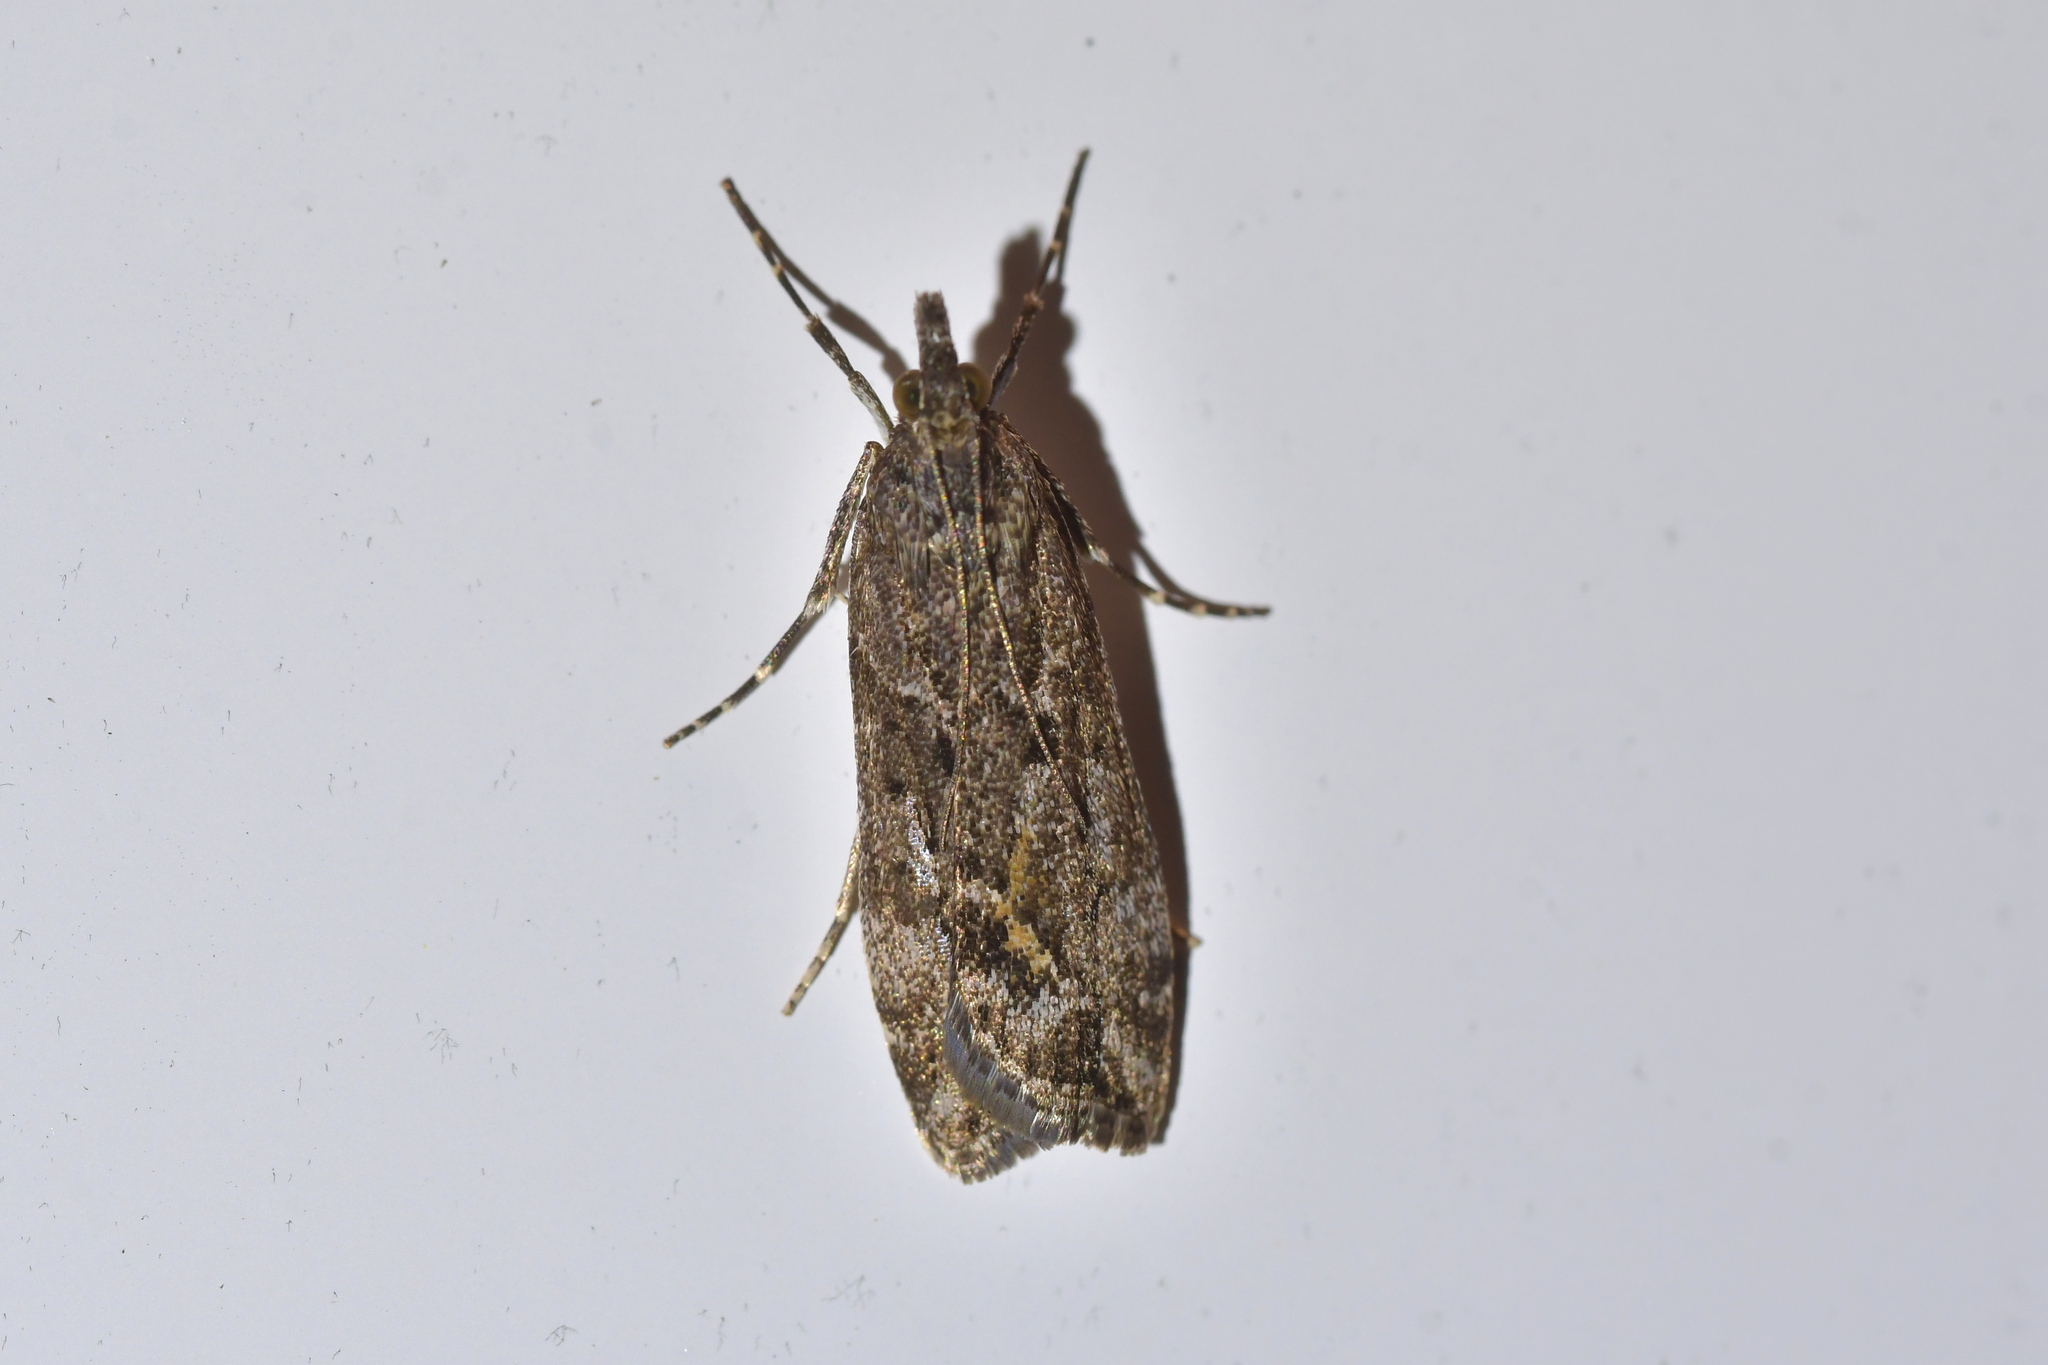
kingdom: Animalia
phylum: Arthropoda
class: Insecta
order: Lepidoptera
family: Crambidae
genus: Eudonia
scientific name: Eudonia submarginalis
